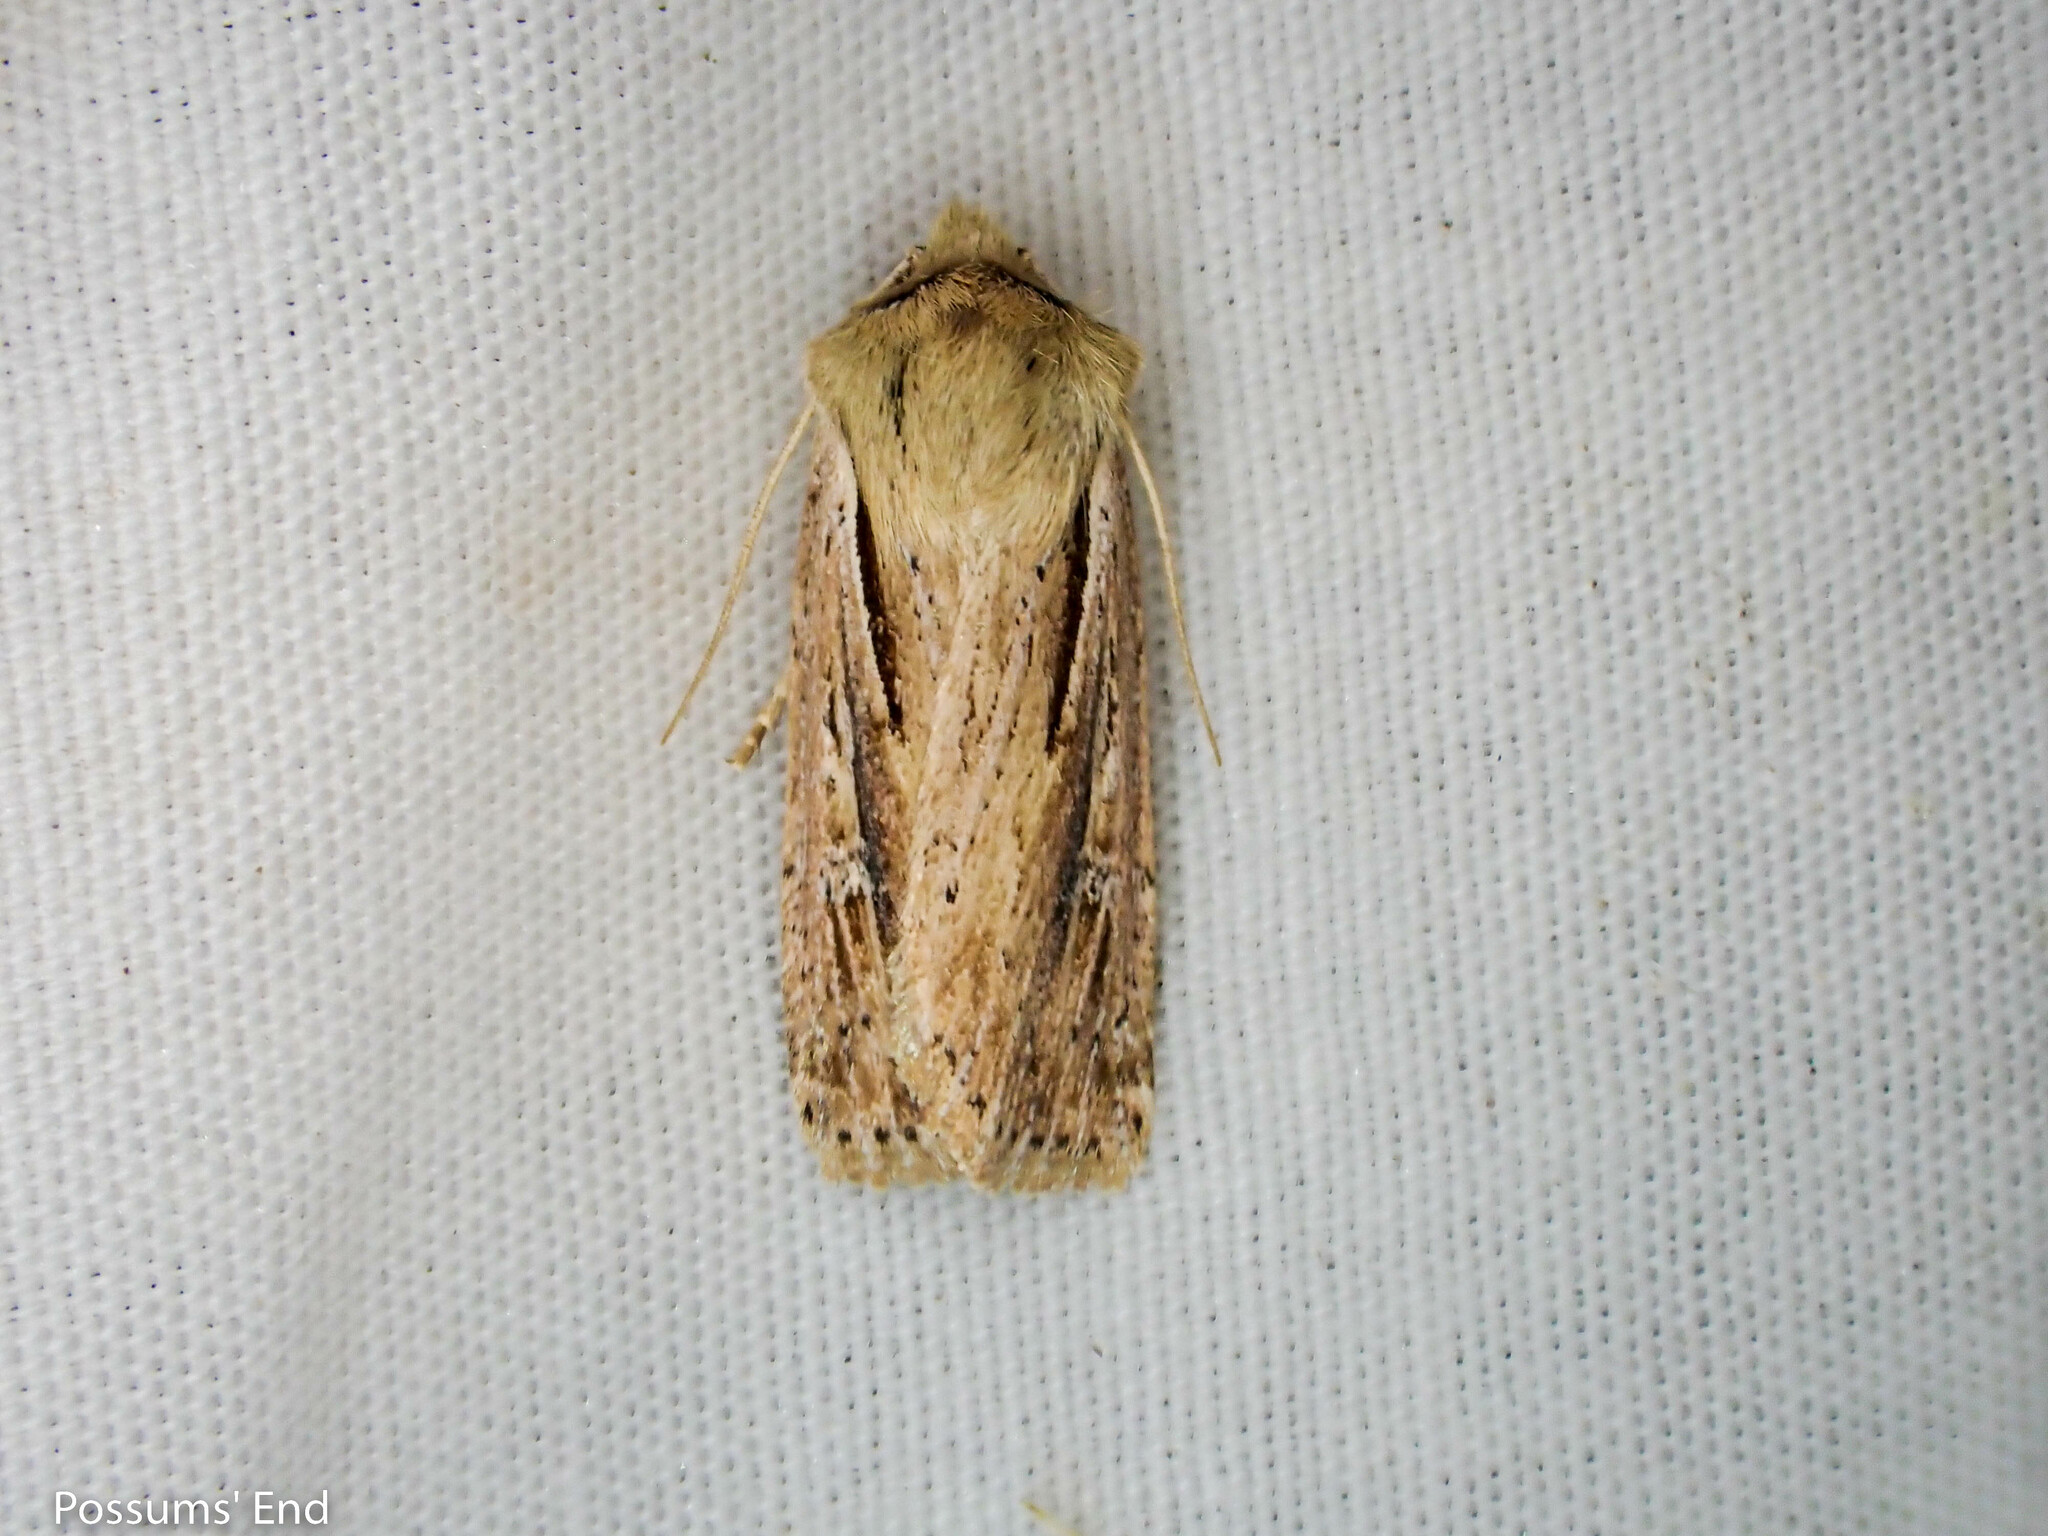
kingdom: Animalia
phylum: Arthropoda
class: Insecta
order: Lepidoptera
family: Noctuidae
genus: Ichneutica
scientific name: Ichneutica propria
